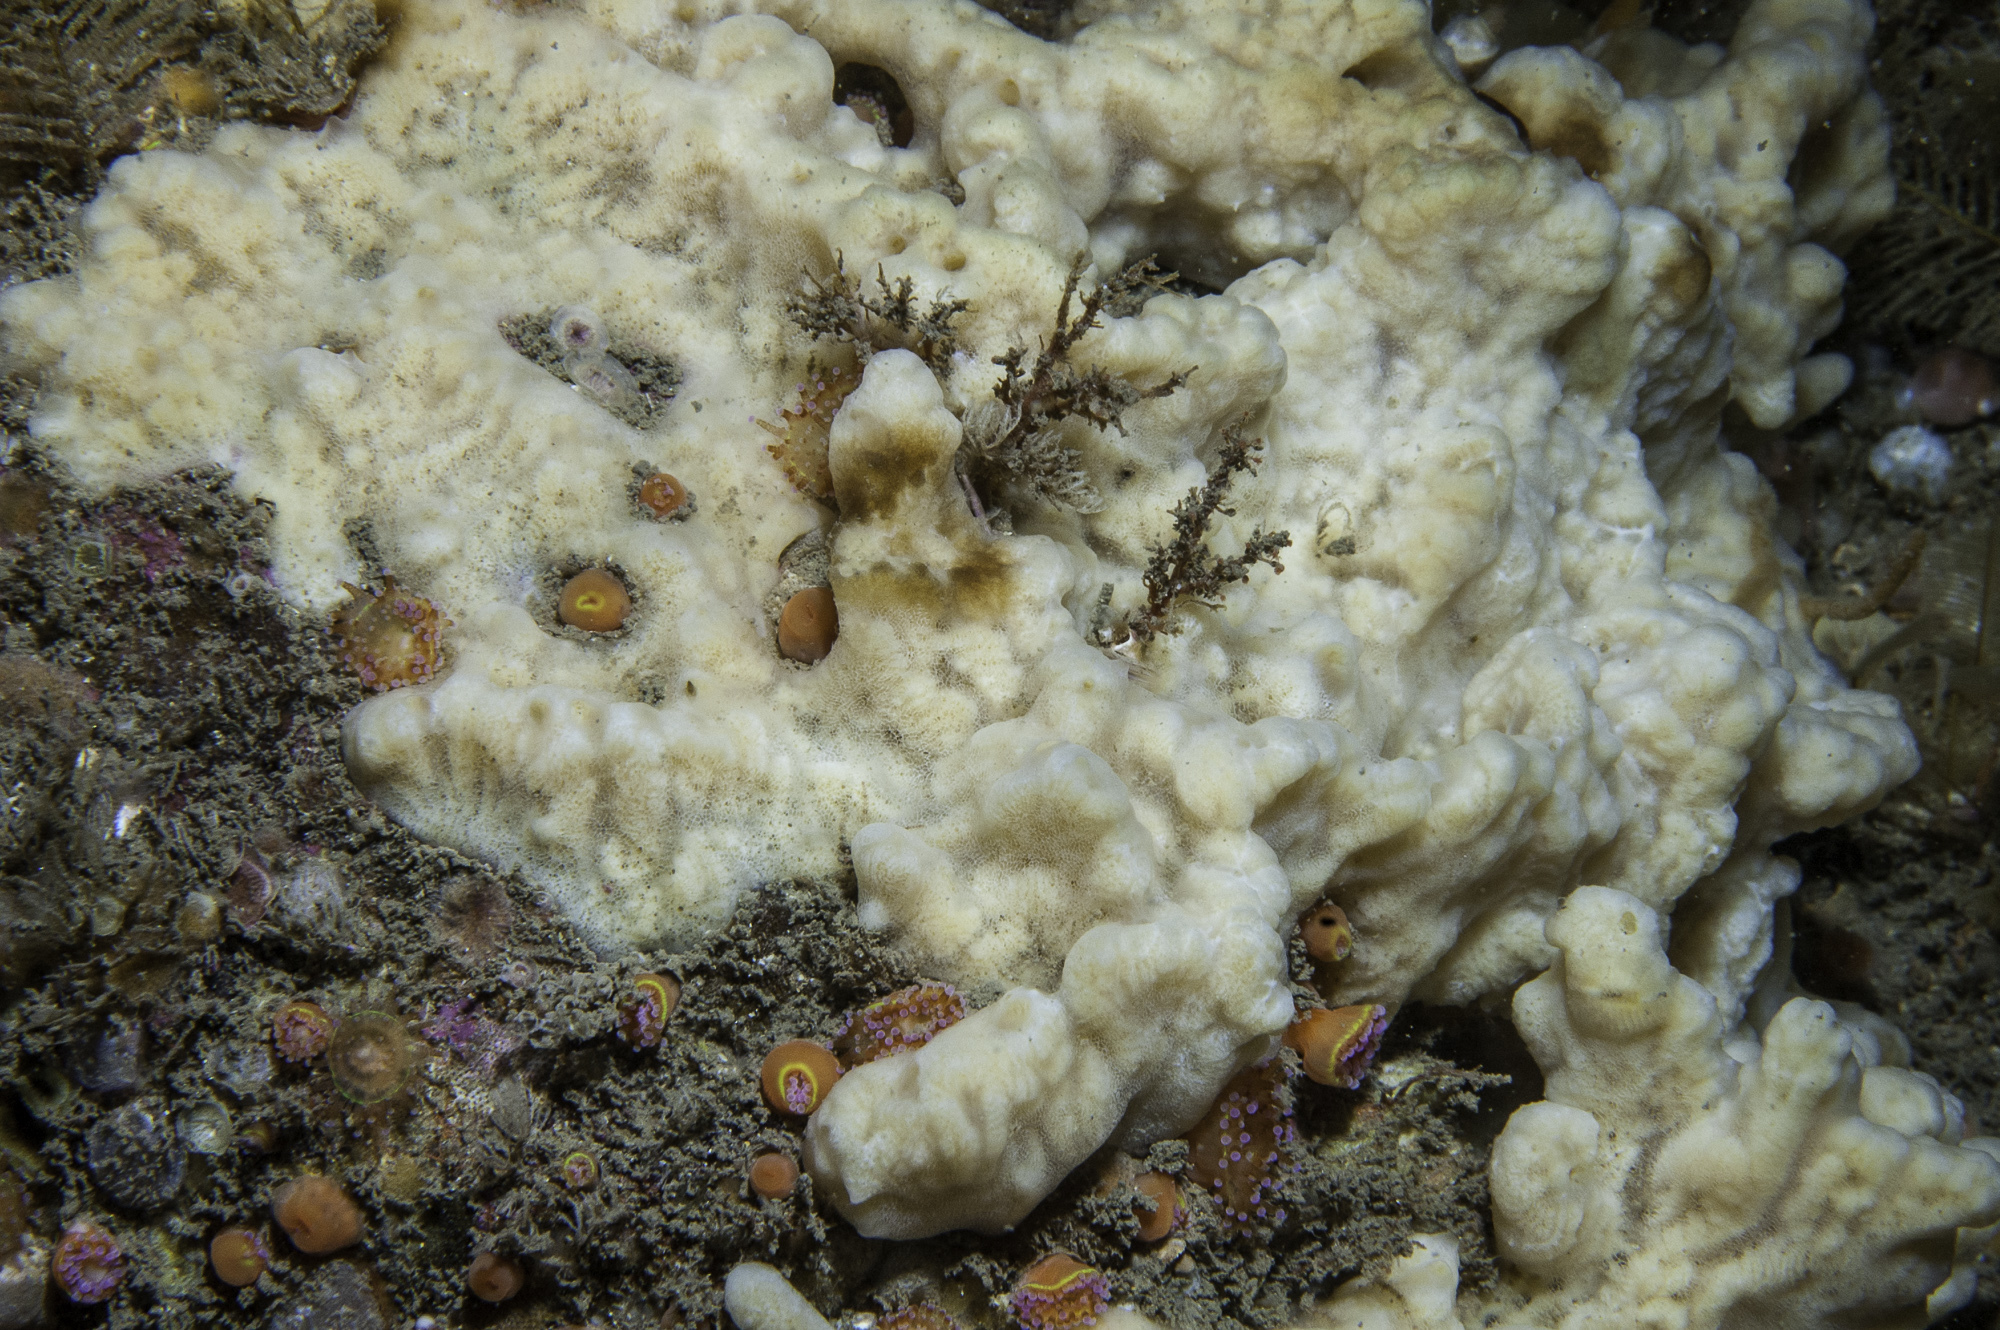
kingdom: Animalia
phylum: Porifera
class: Demospongiae
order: Poecilosclerida
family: Acarnidae
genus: Iophon
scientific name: Iophon nigricans
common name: Yellow-fingered horny sponge
